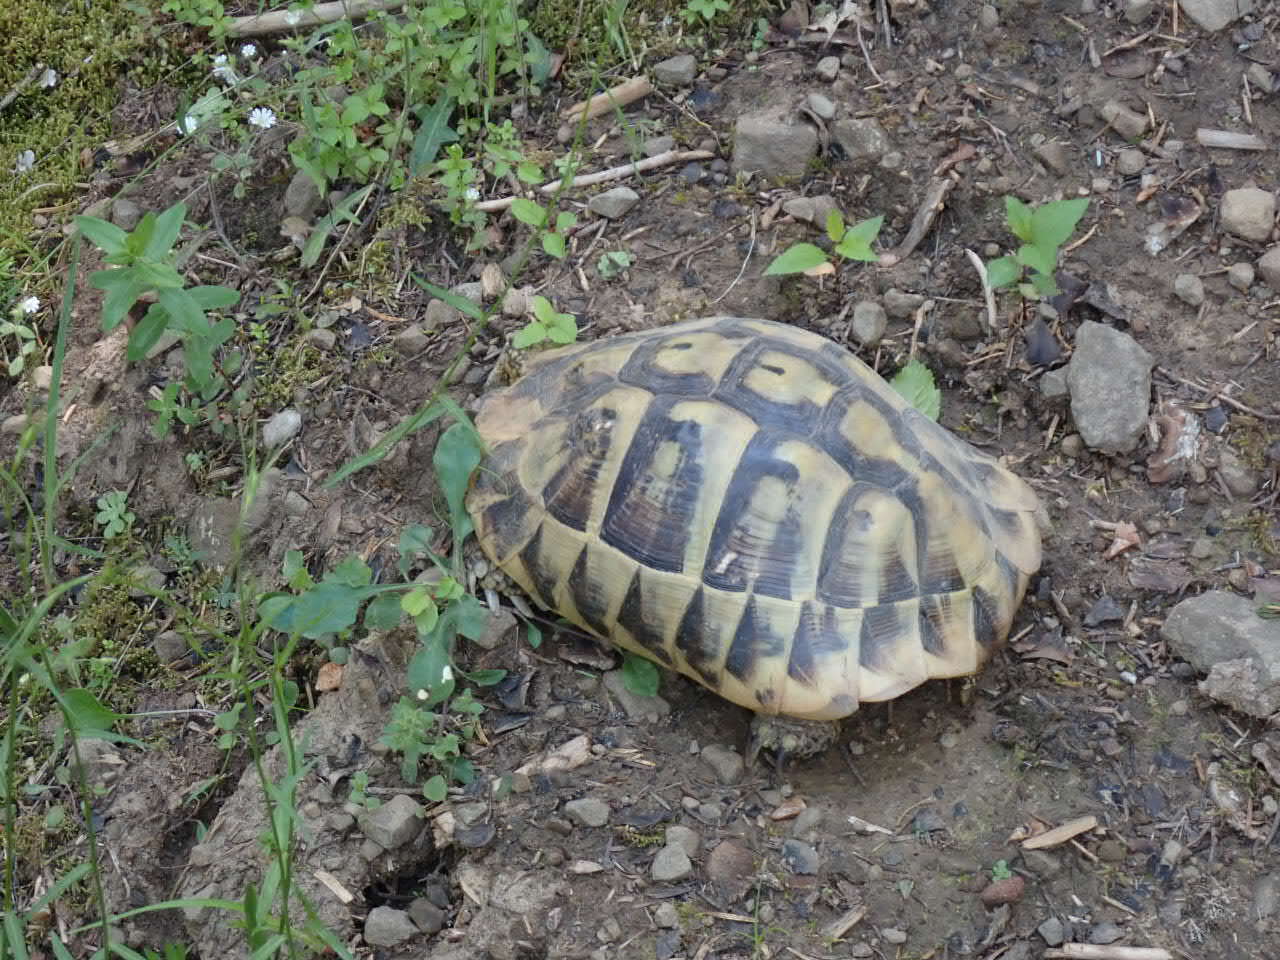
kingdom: Animalia
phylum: Chordata
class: Testudines
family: Testudinidae
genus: Testudo
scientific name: Testudo hermanni
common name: Hermann's tortoise
